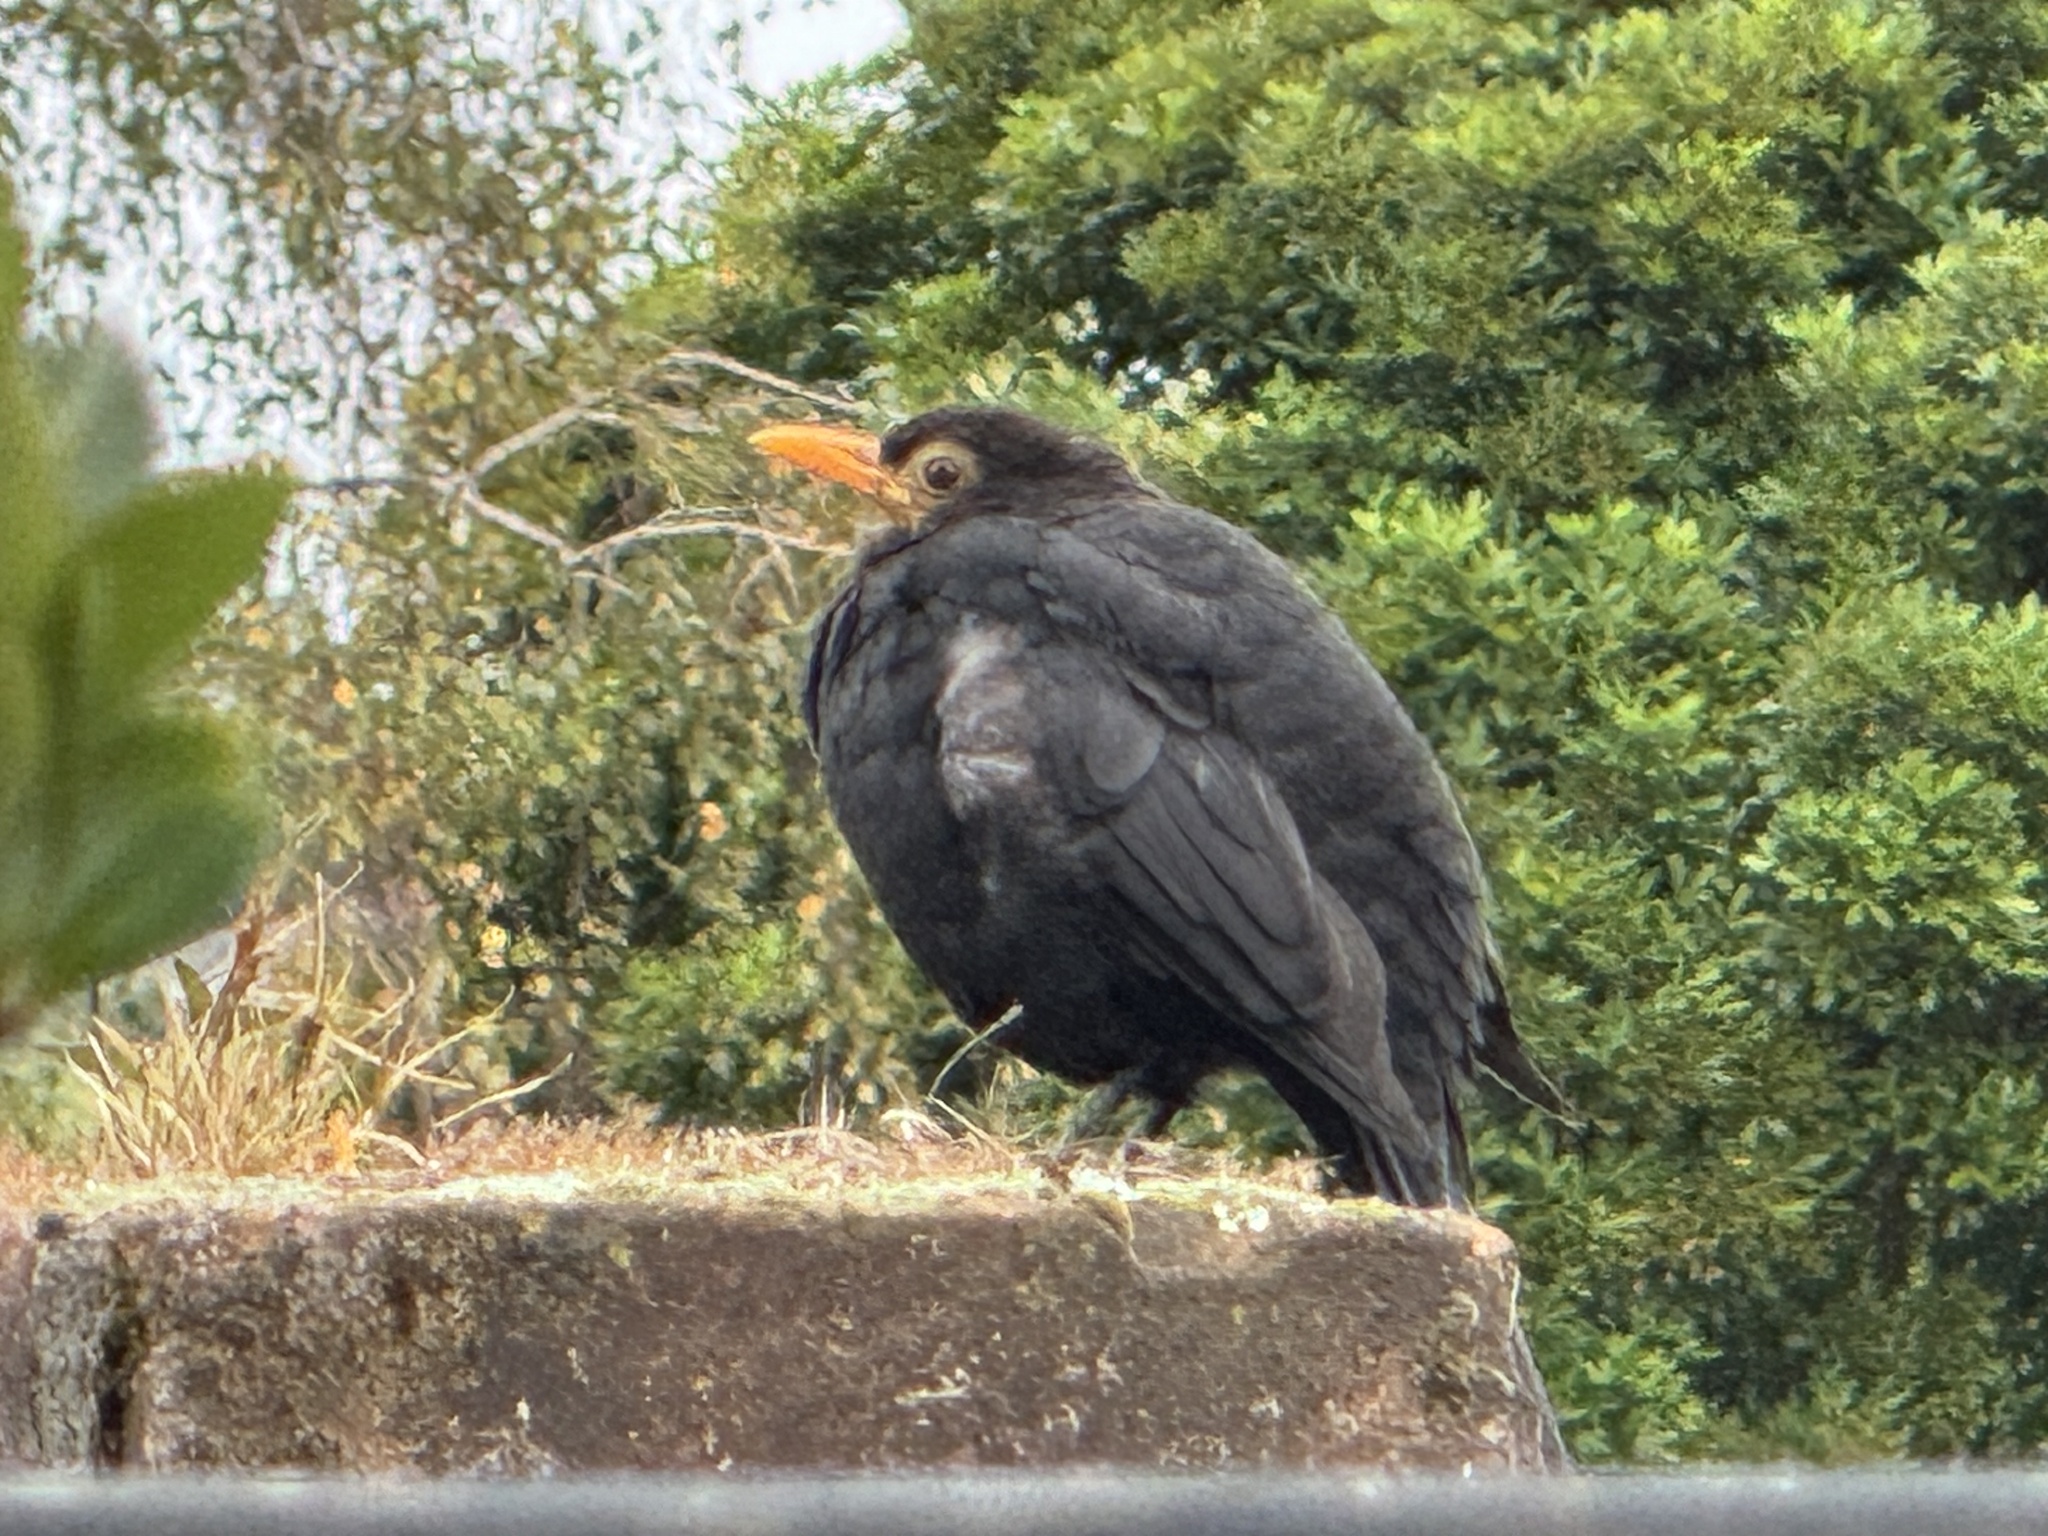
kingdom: Animalia
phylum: Chordata
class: Aves
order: Passeriformes
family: Turdidae
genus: Turdus
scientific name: Turdus merula
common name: Common blackbird
